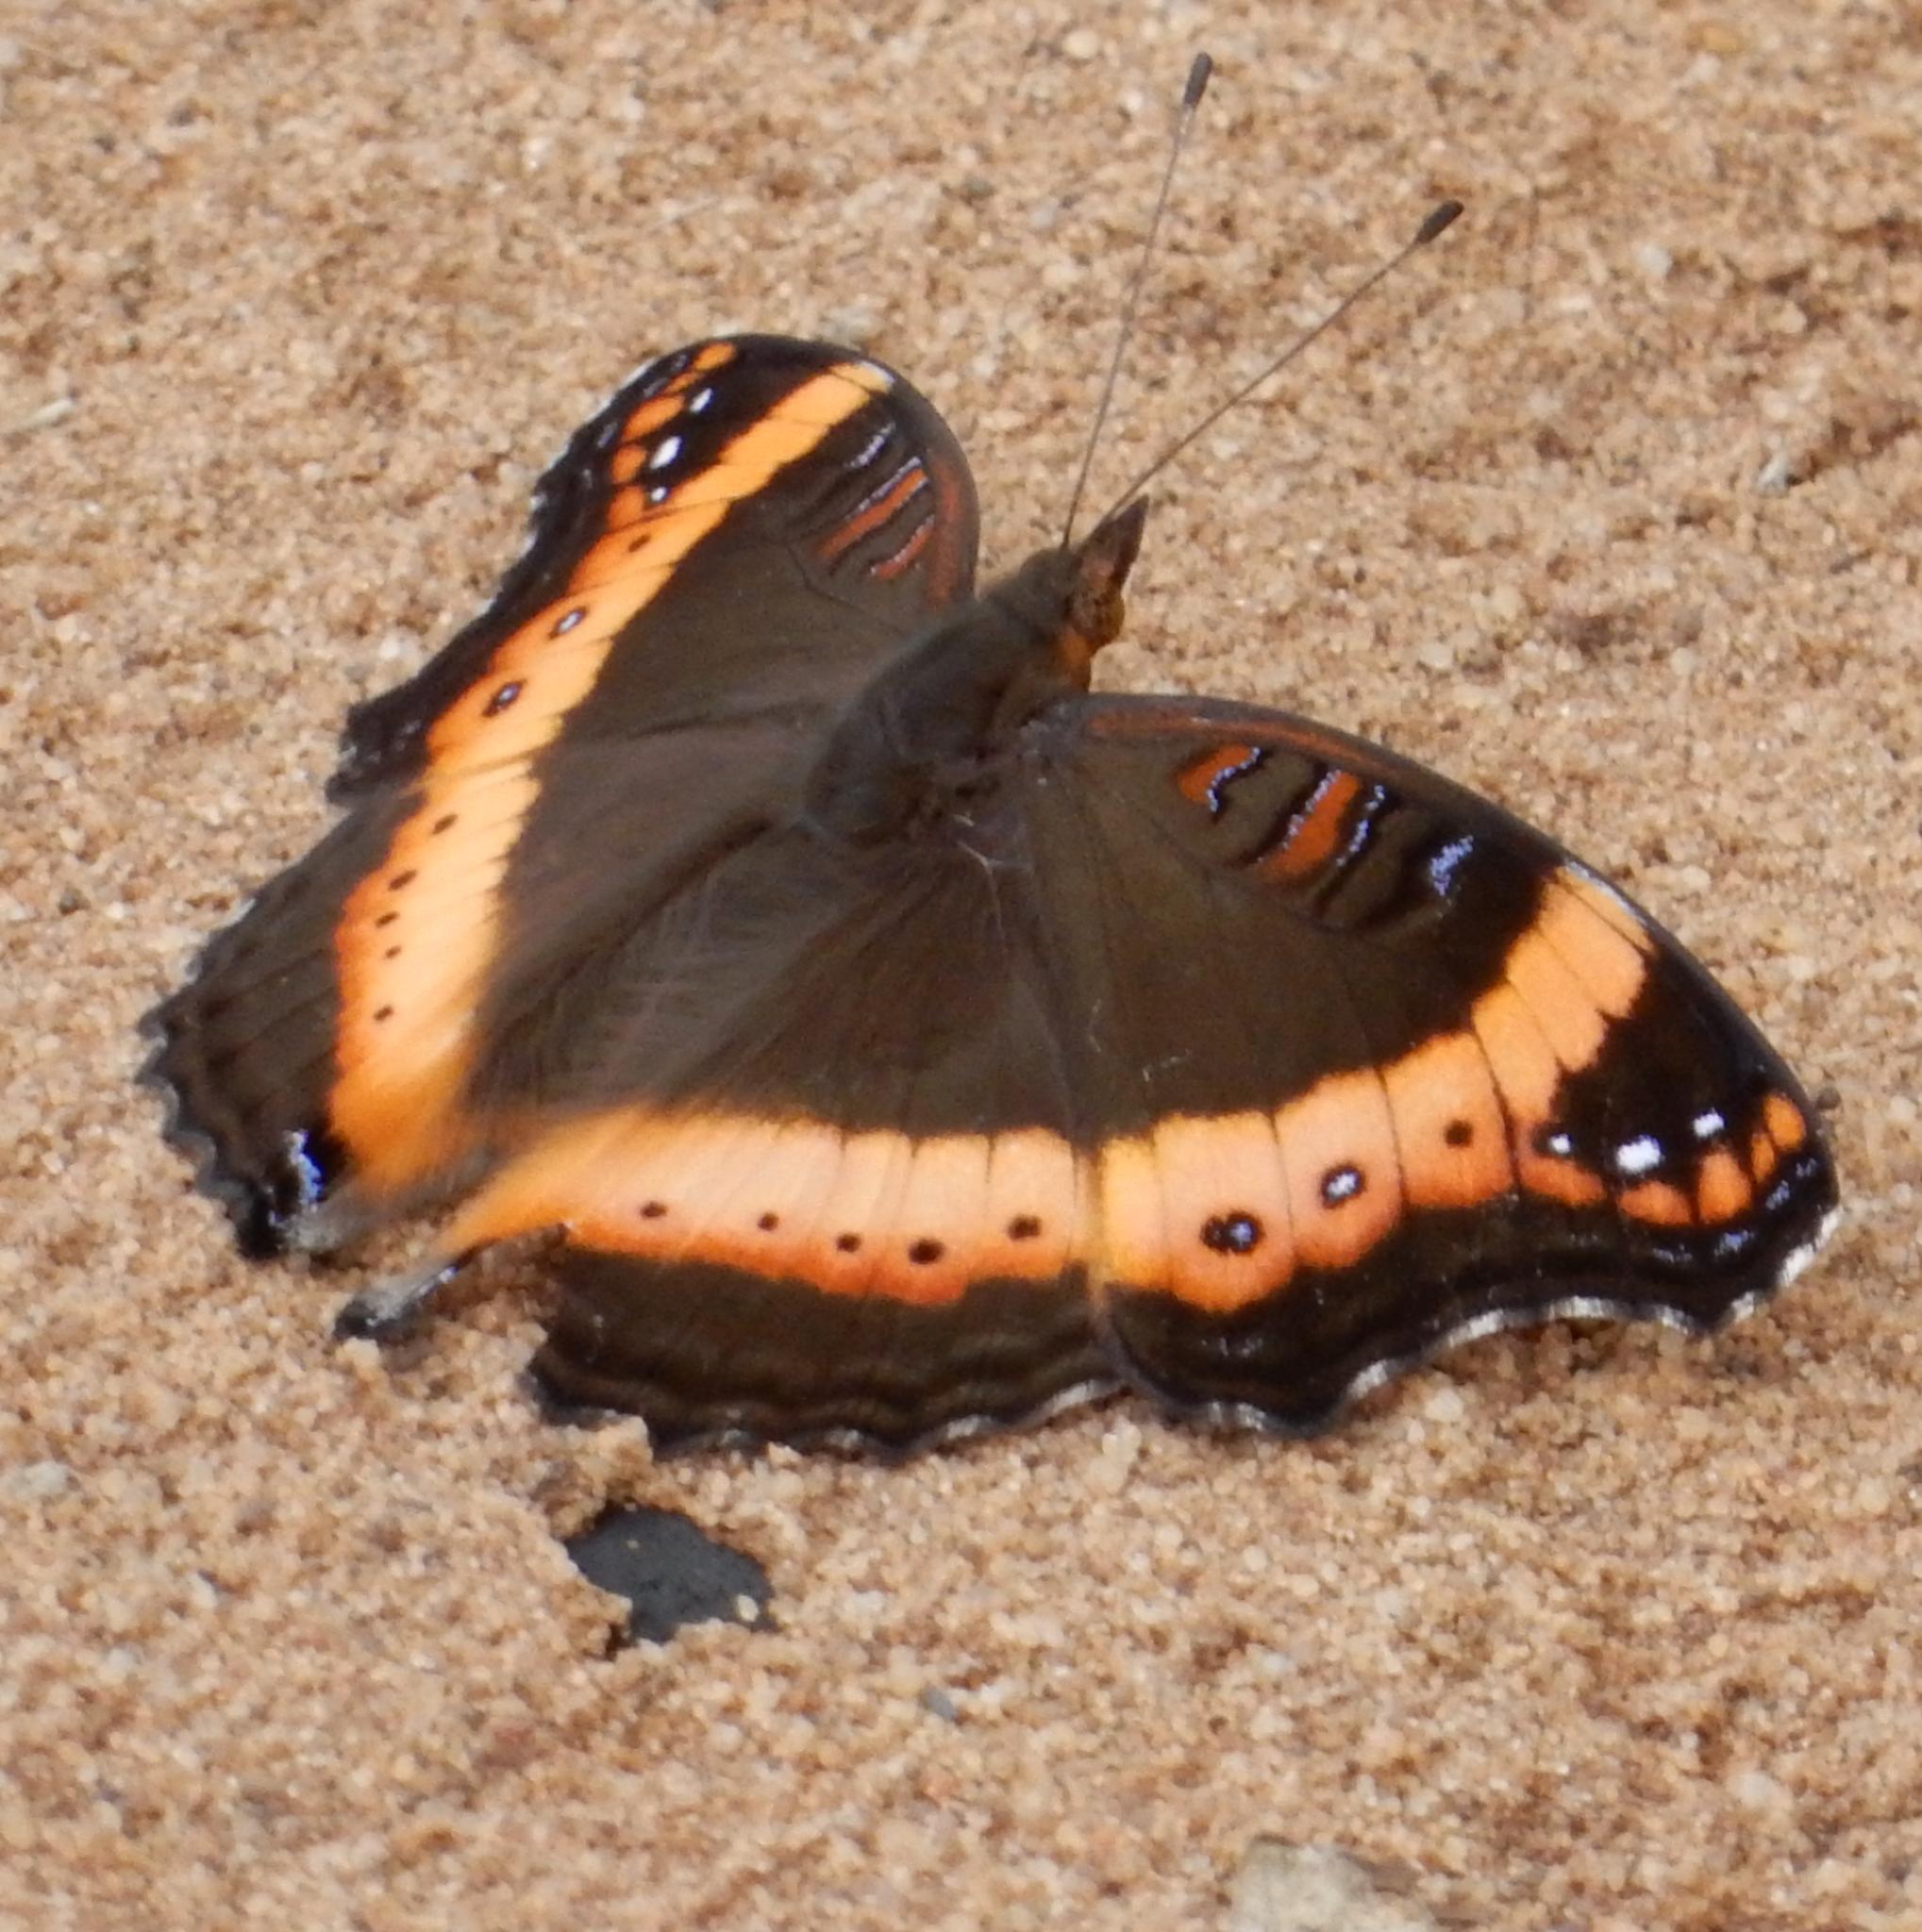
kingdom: Animalia
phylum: Arthropoda
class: Insecta
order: Lepidoptera
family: Nymphalidae
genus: Junonia
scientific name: Junonia archesia
